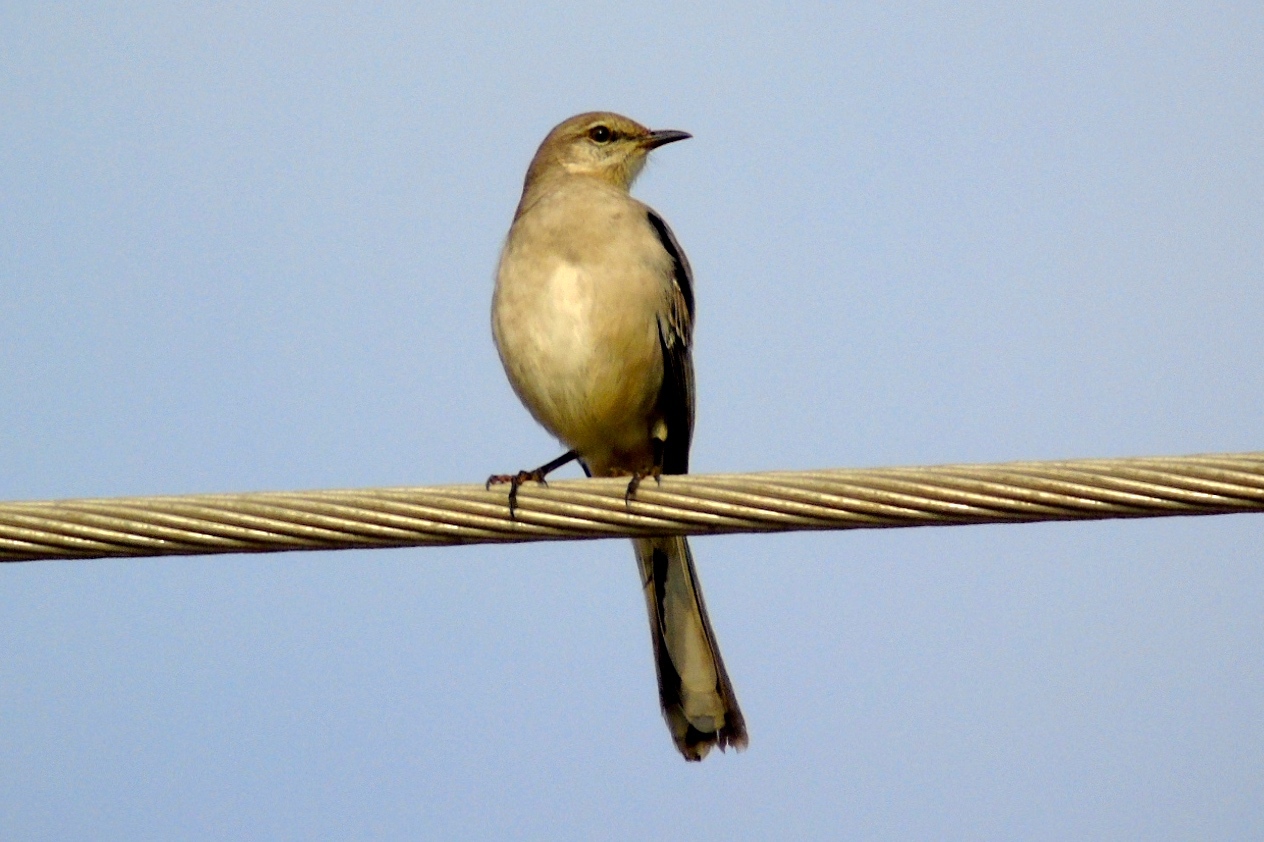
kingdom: Animalia
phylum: Chordata
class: Aves
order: Passeriformes
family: Mimidae
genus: Mimus
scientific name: Mimus polyglottos
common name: Northern mockingbird
